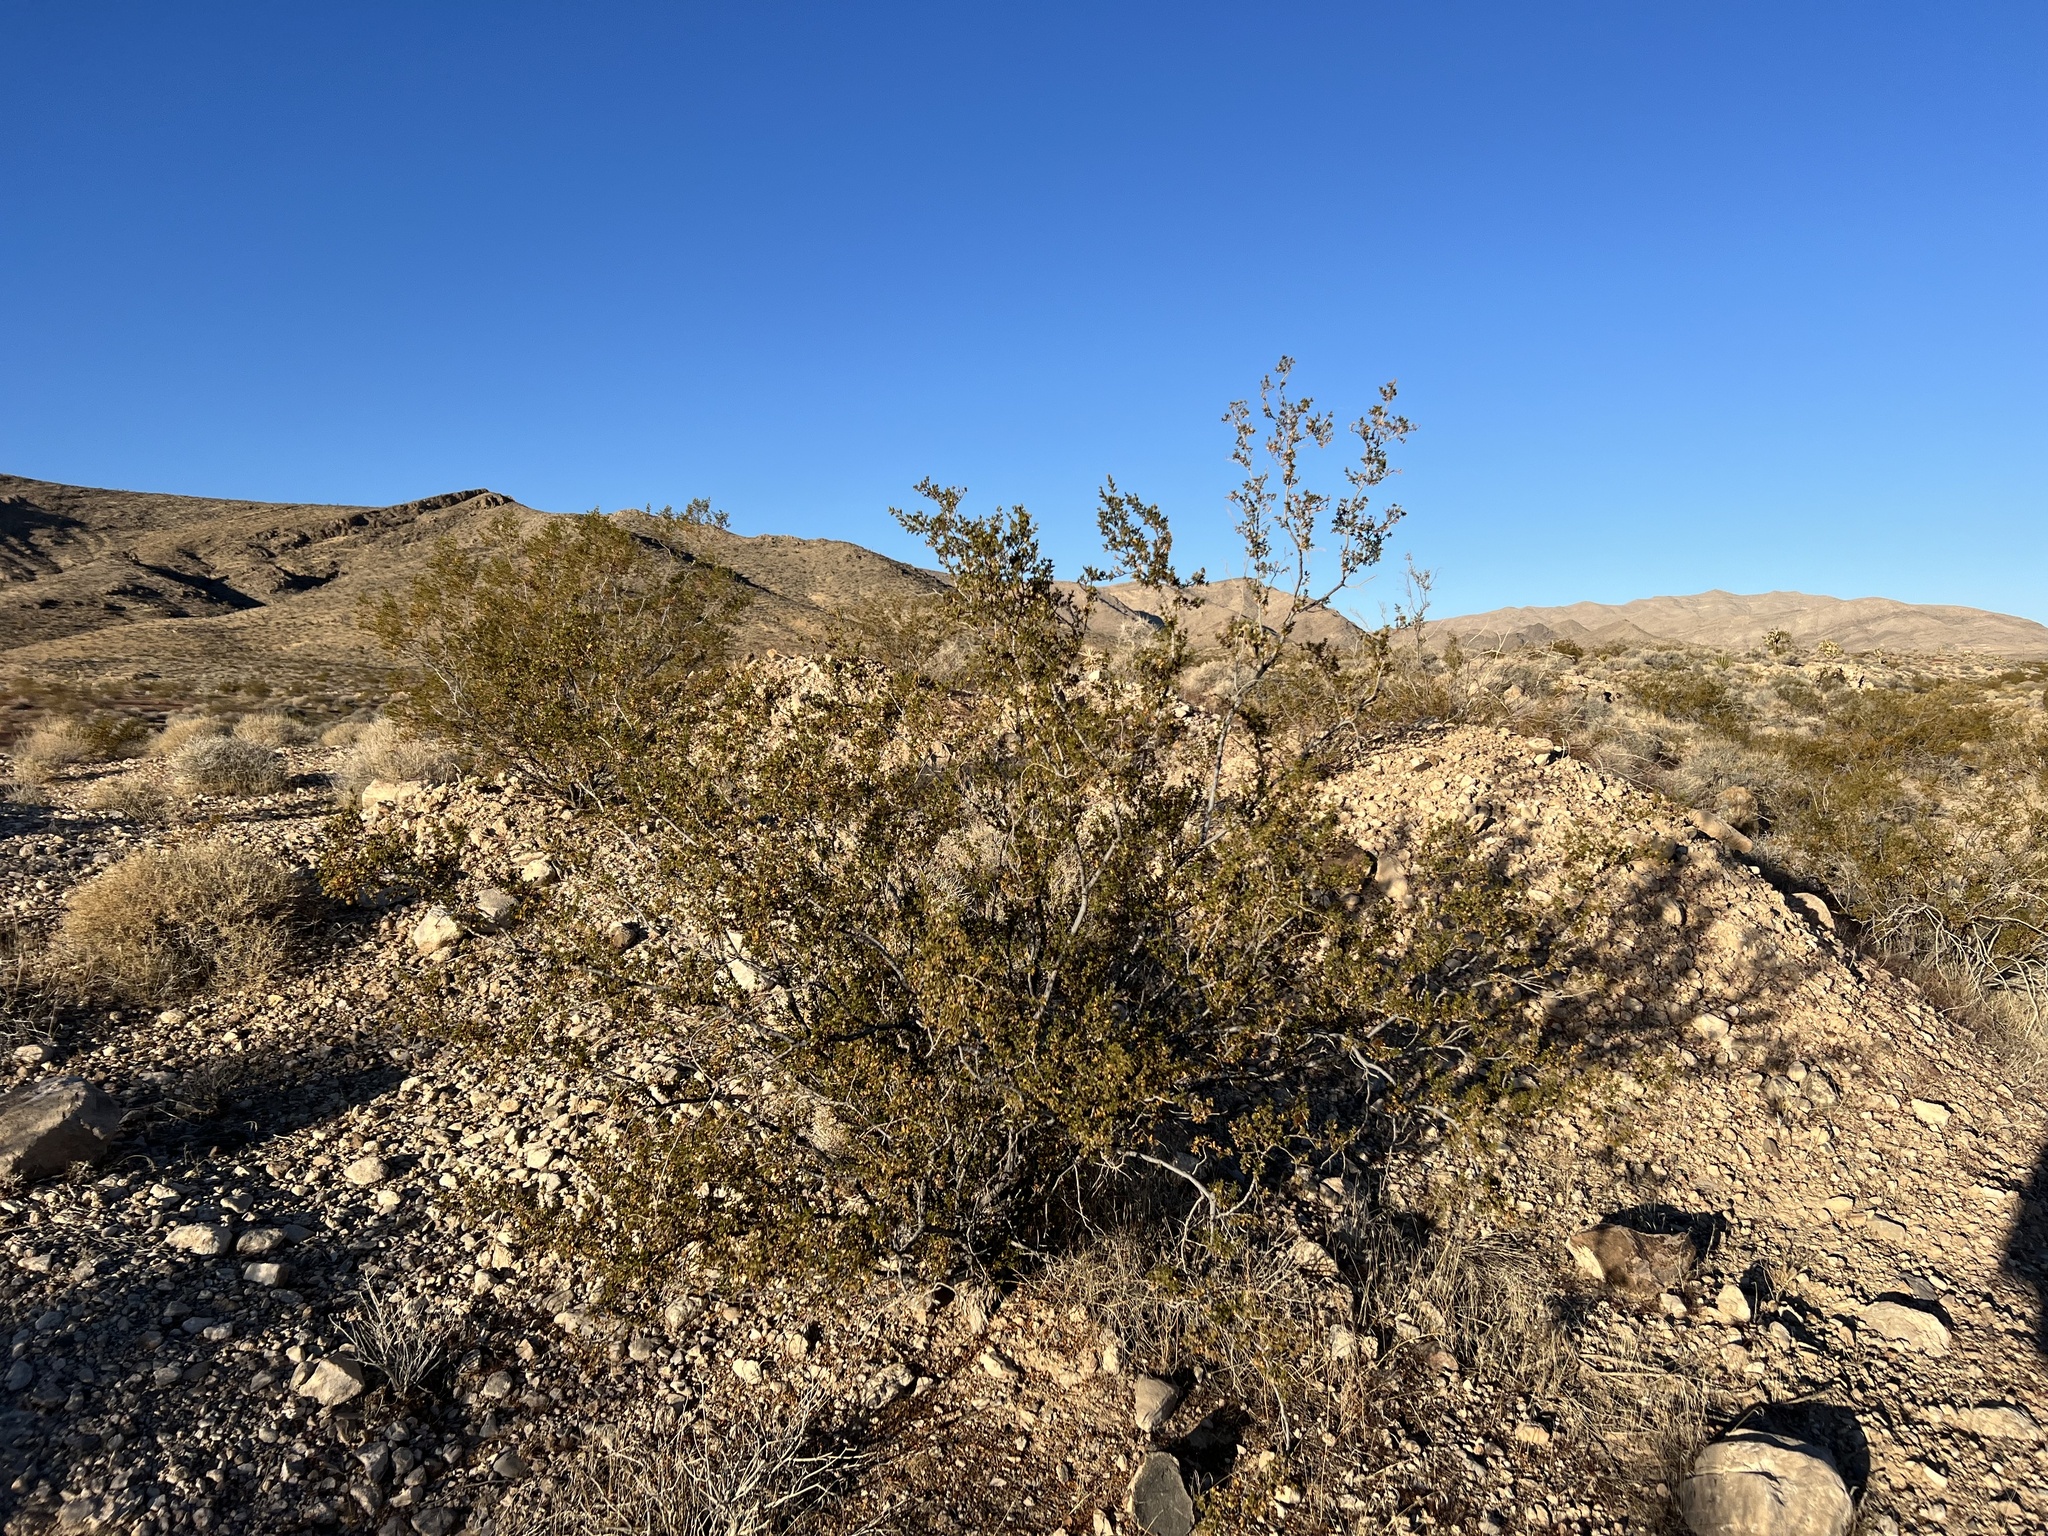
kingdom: Plantae
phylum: Tracheophyta
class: Magnoliopsida
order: Zygophyllales
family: Zygophyllaceae
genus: Larrea
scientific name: Larrea tridentata
